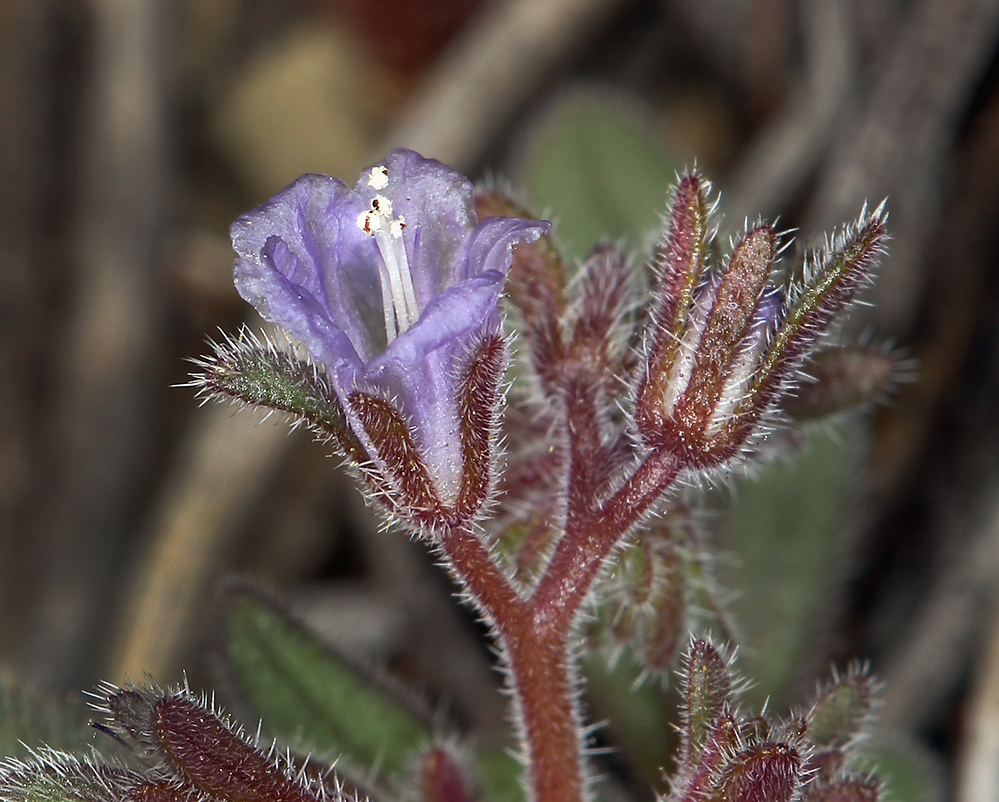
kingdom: Plantae
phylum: Tracheophyta
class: Magnoliopsida
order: Boraginales
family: Hydrophyllaceae
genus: Phacelia
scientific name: Phacelia austromontana
